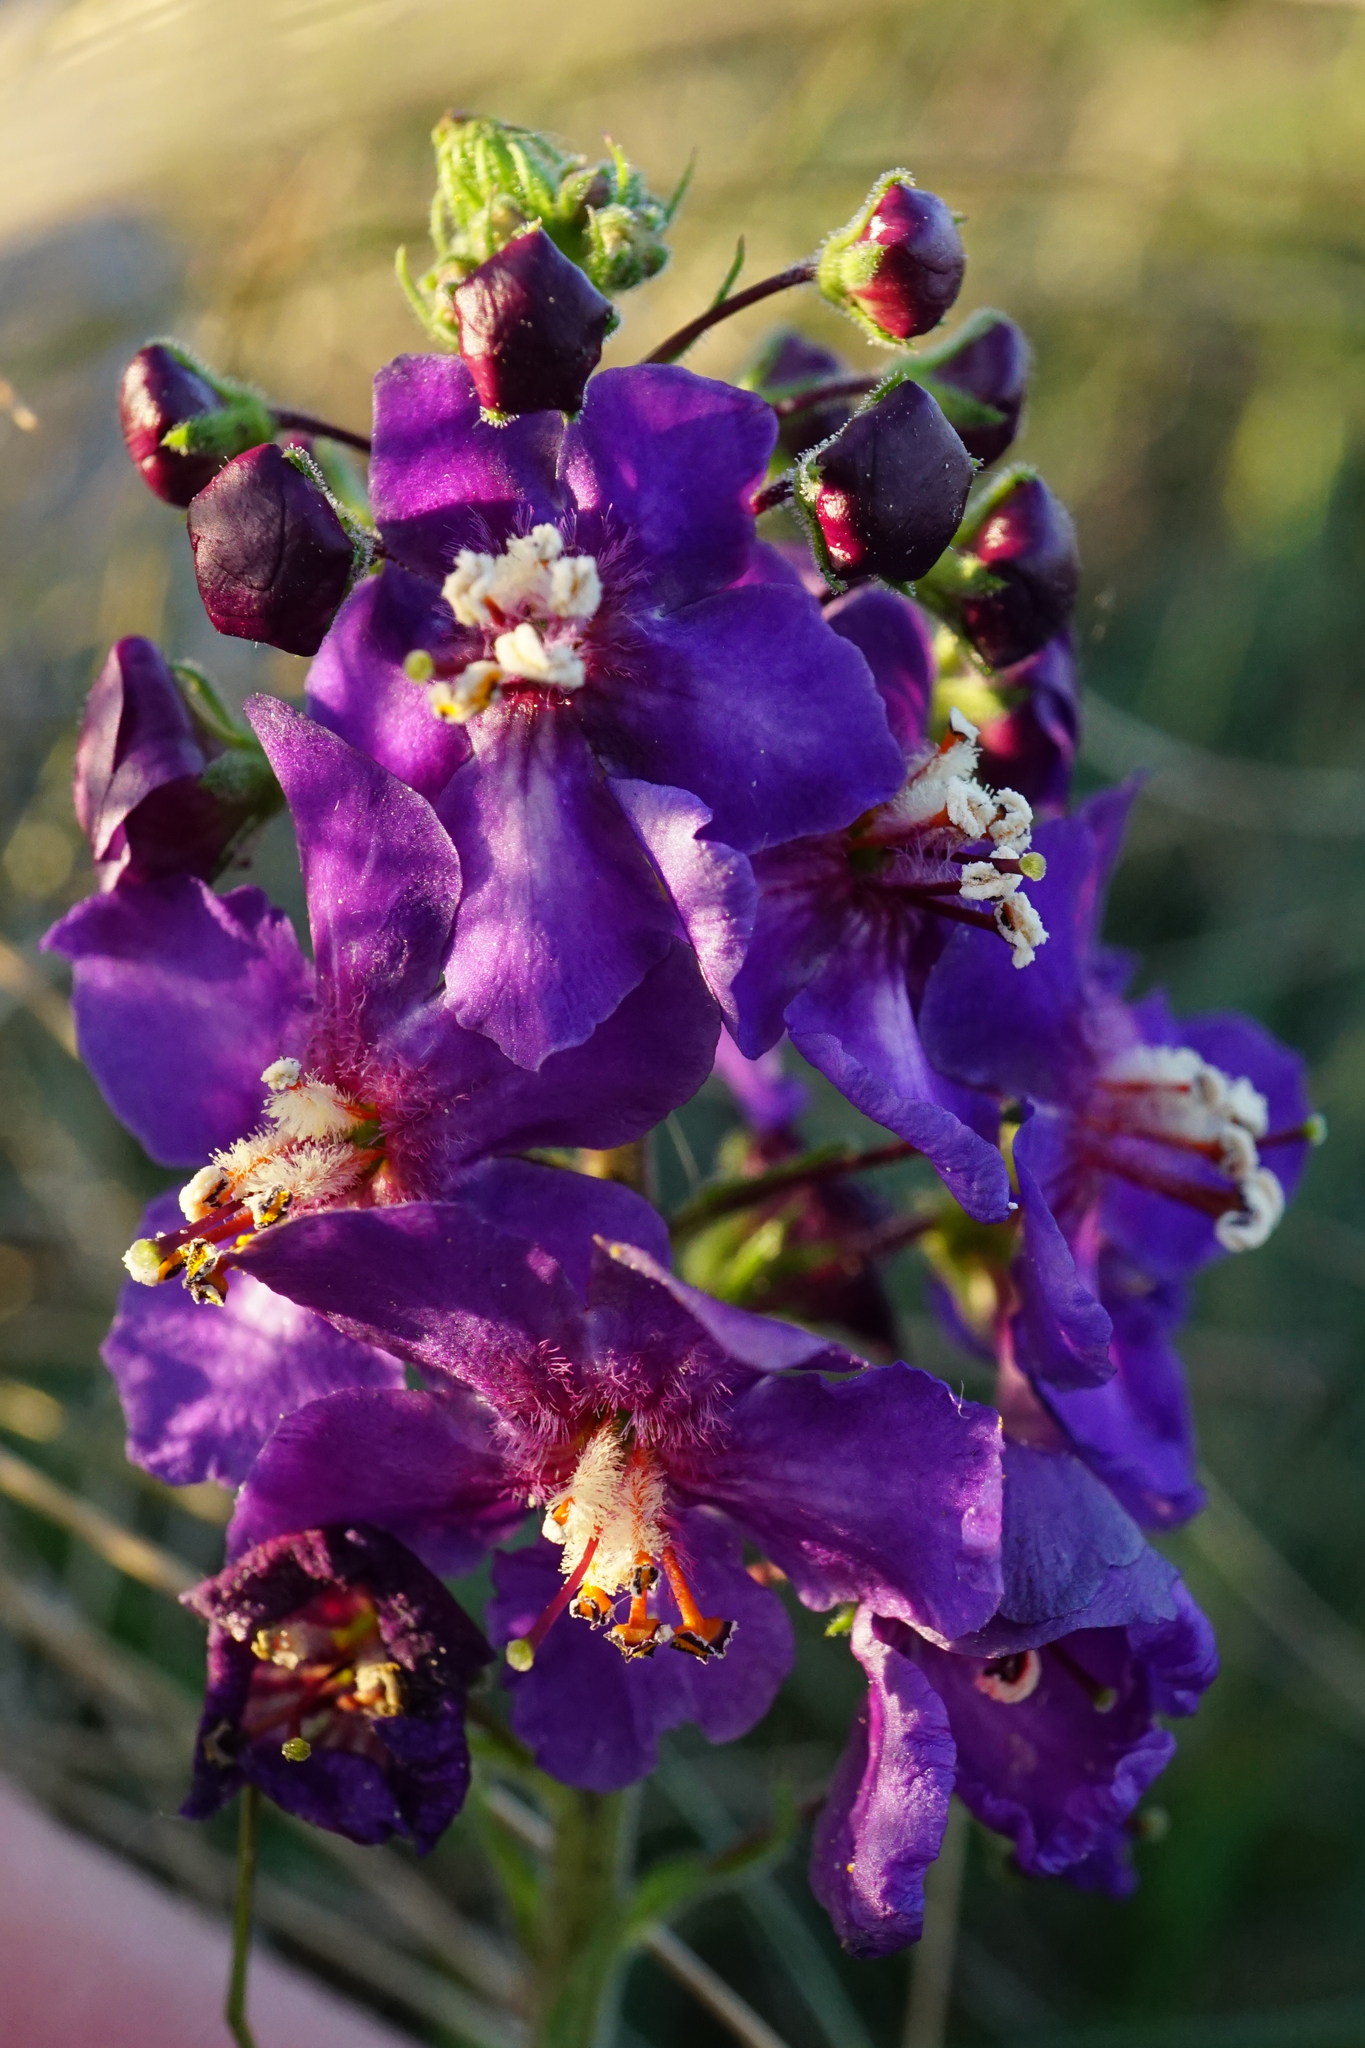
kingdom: Plantae
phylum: Tracheophyta
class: Magnoliopsida
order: Lamiales
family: Scrophulariaceae
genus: Verbascum
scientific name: Verbascum phoeniceum
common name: Purple mullein
